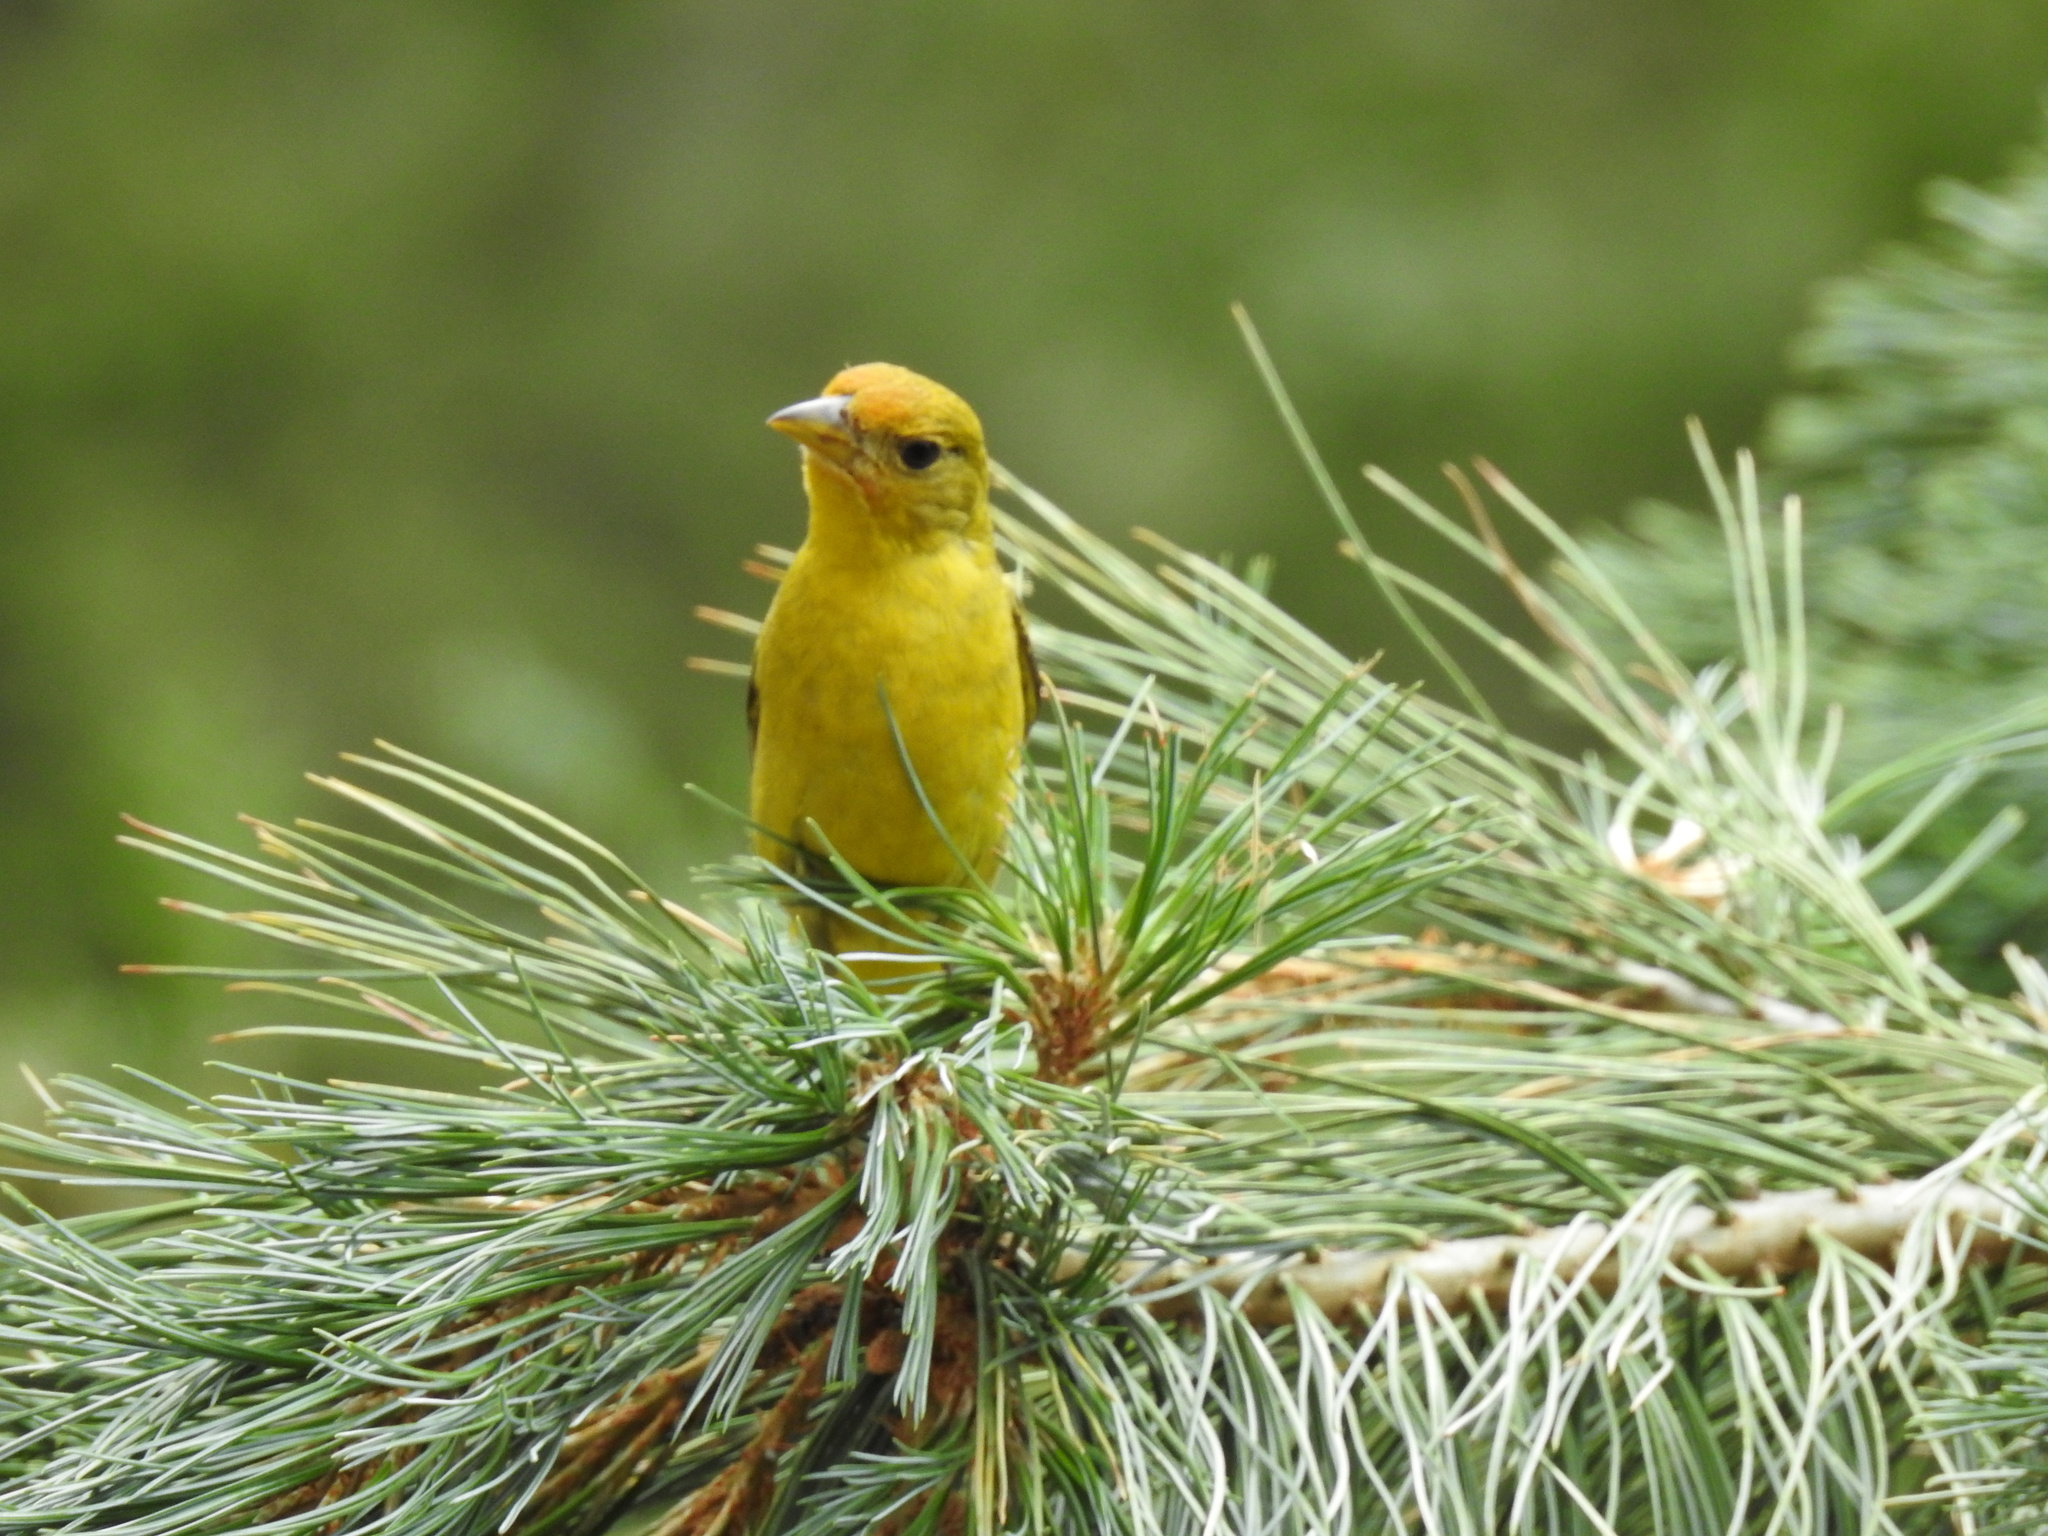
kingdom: Animalia
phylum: Chordata
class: Aves
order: Passeriformes
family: Cardinalidae
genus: Piranga
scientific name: Piranga ludoviciana
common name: Western tanager
